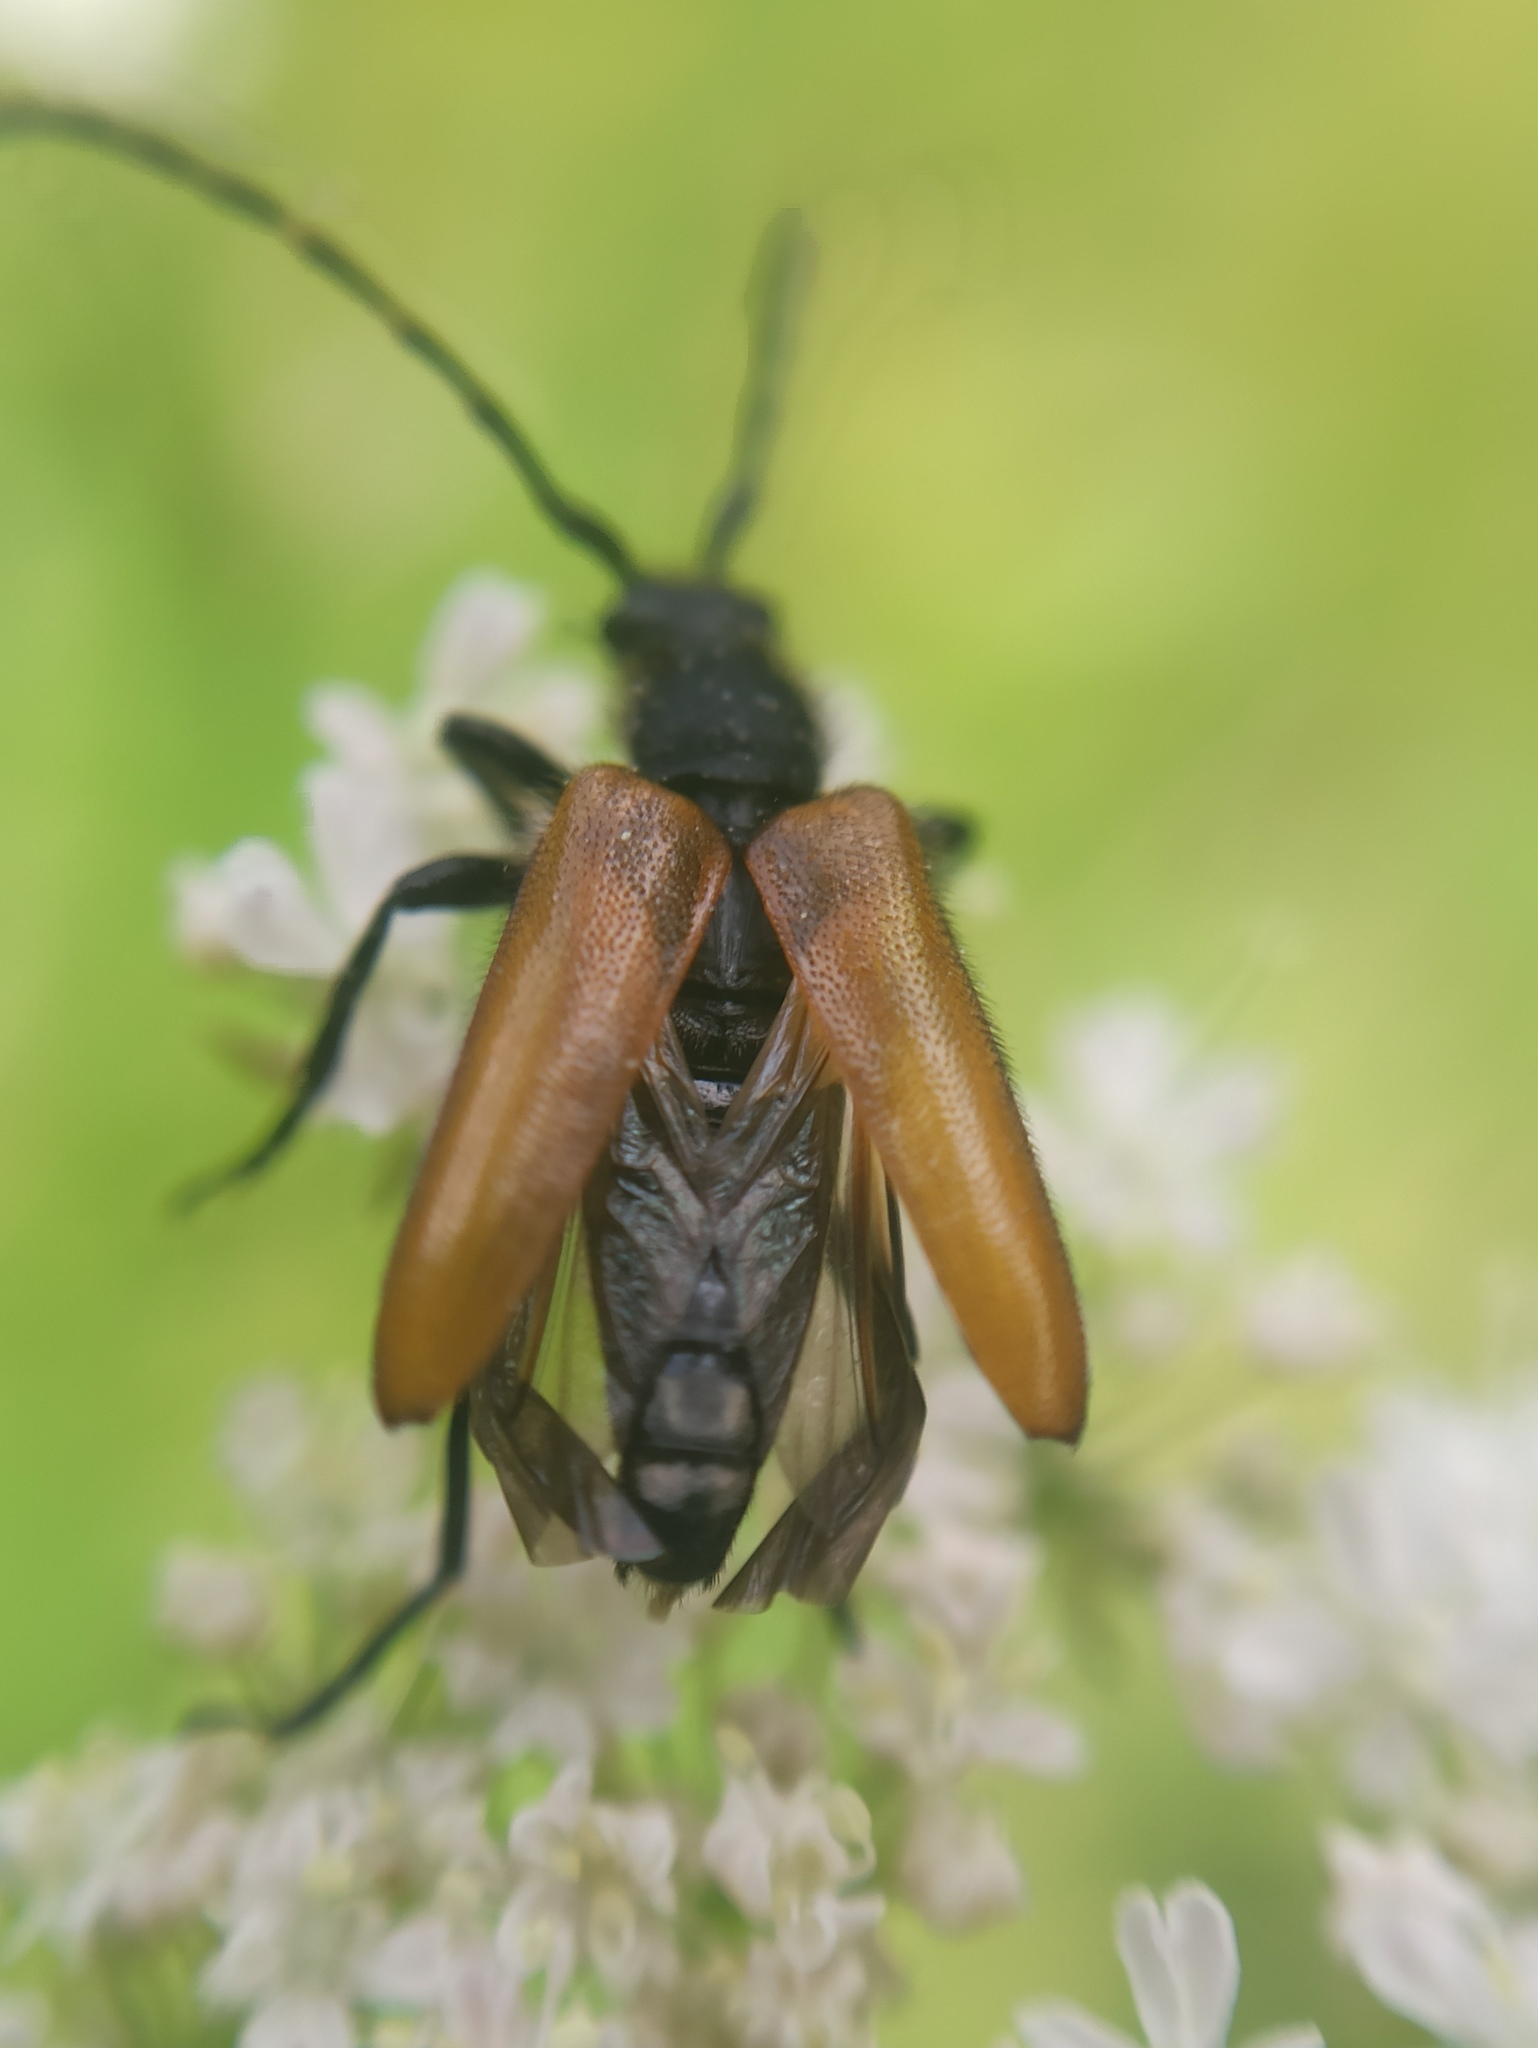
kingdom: Animalia
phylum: Arthropoda
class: Insecta
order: Coleoptera
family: Cerambycidae
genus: Paracorymbia
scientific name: Paracorymbia hybrida
